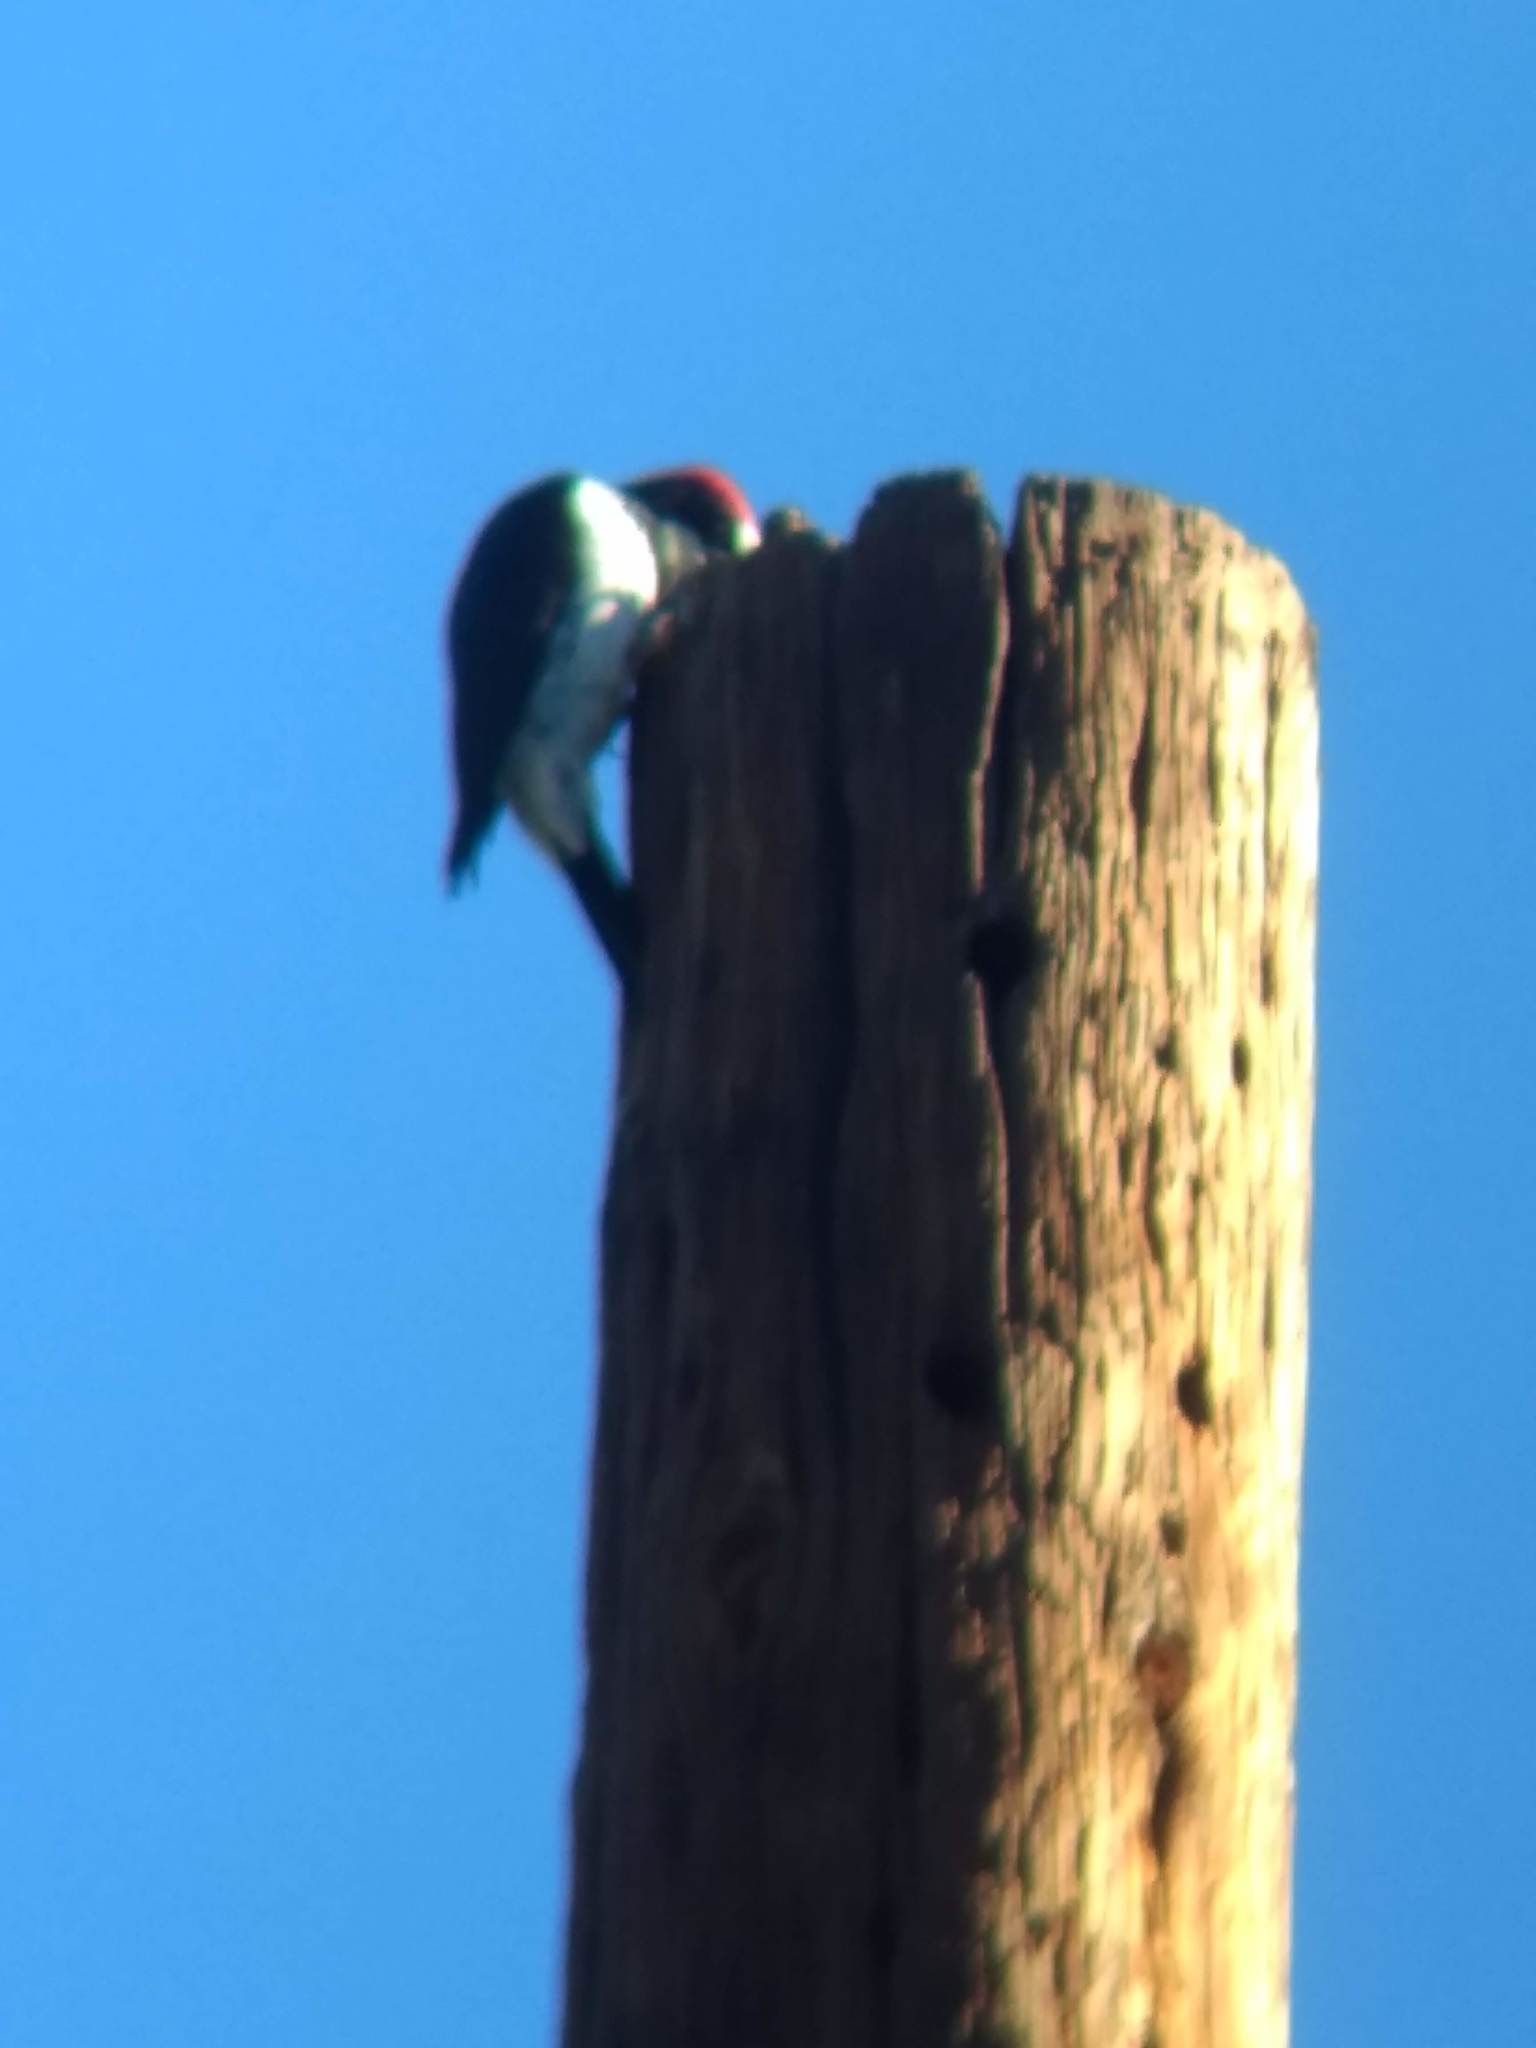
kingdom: Animalia
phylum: Chordata
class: Aves
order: Piciformes
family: Picidae
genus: Melanerpes
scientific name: Melanerpes formicivorus
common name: Acorn woodpecker
